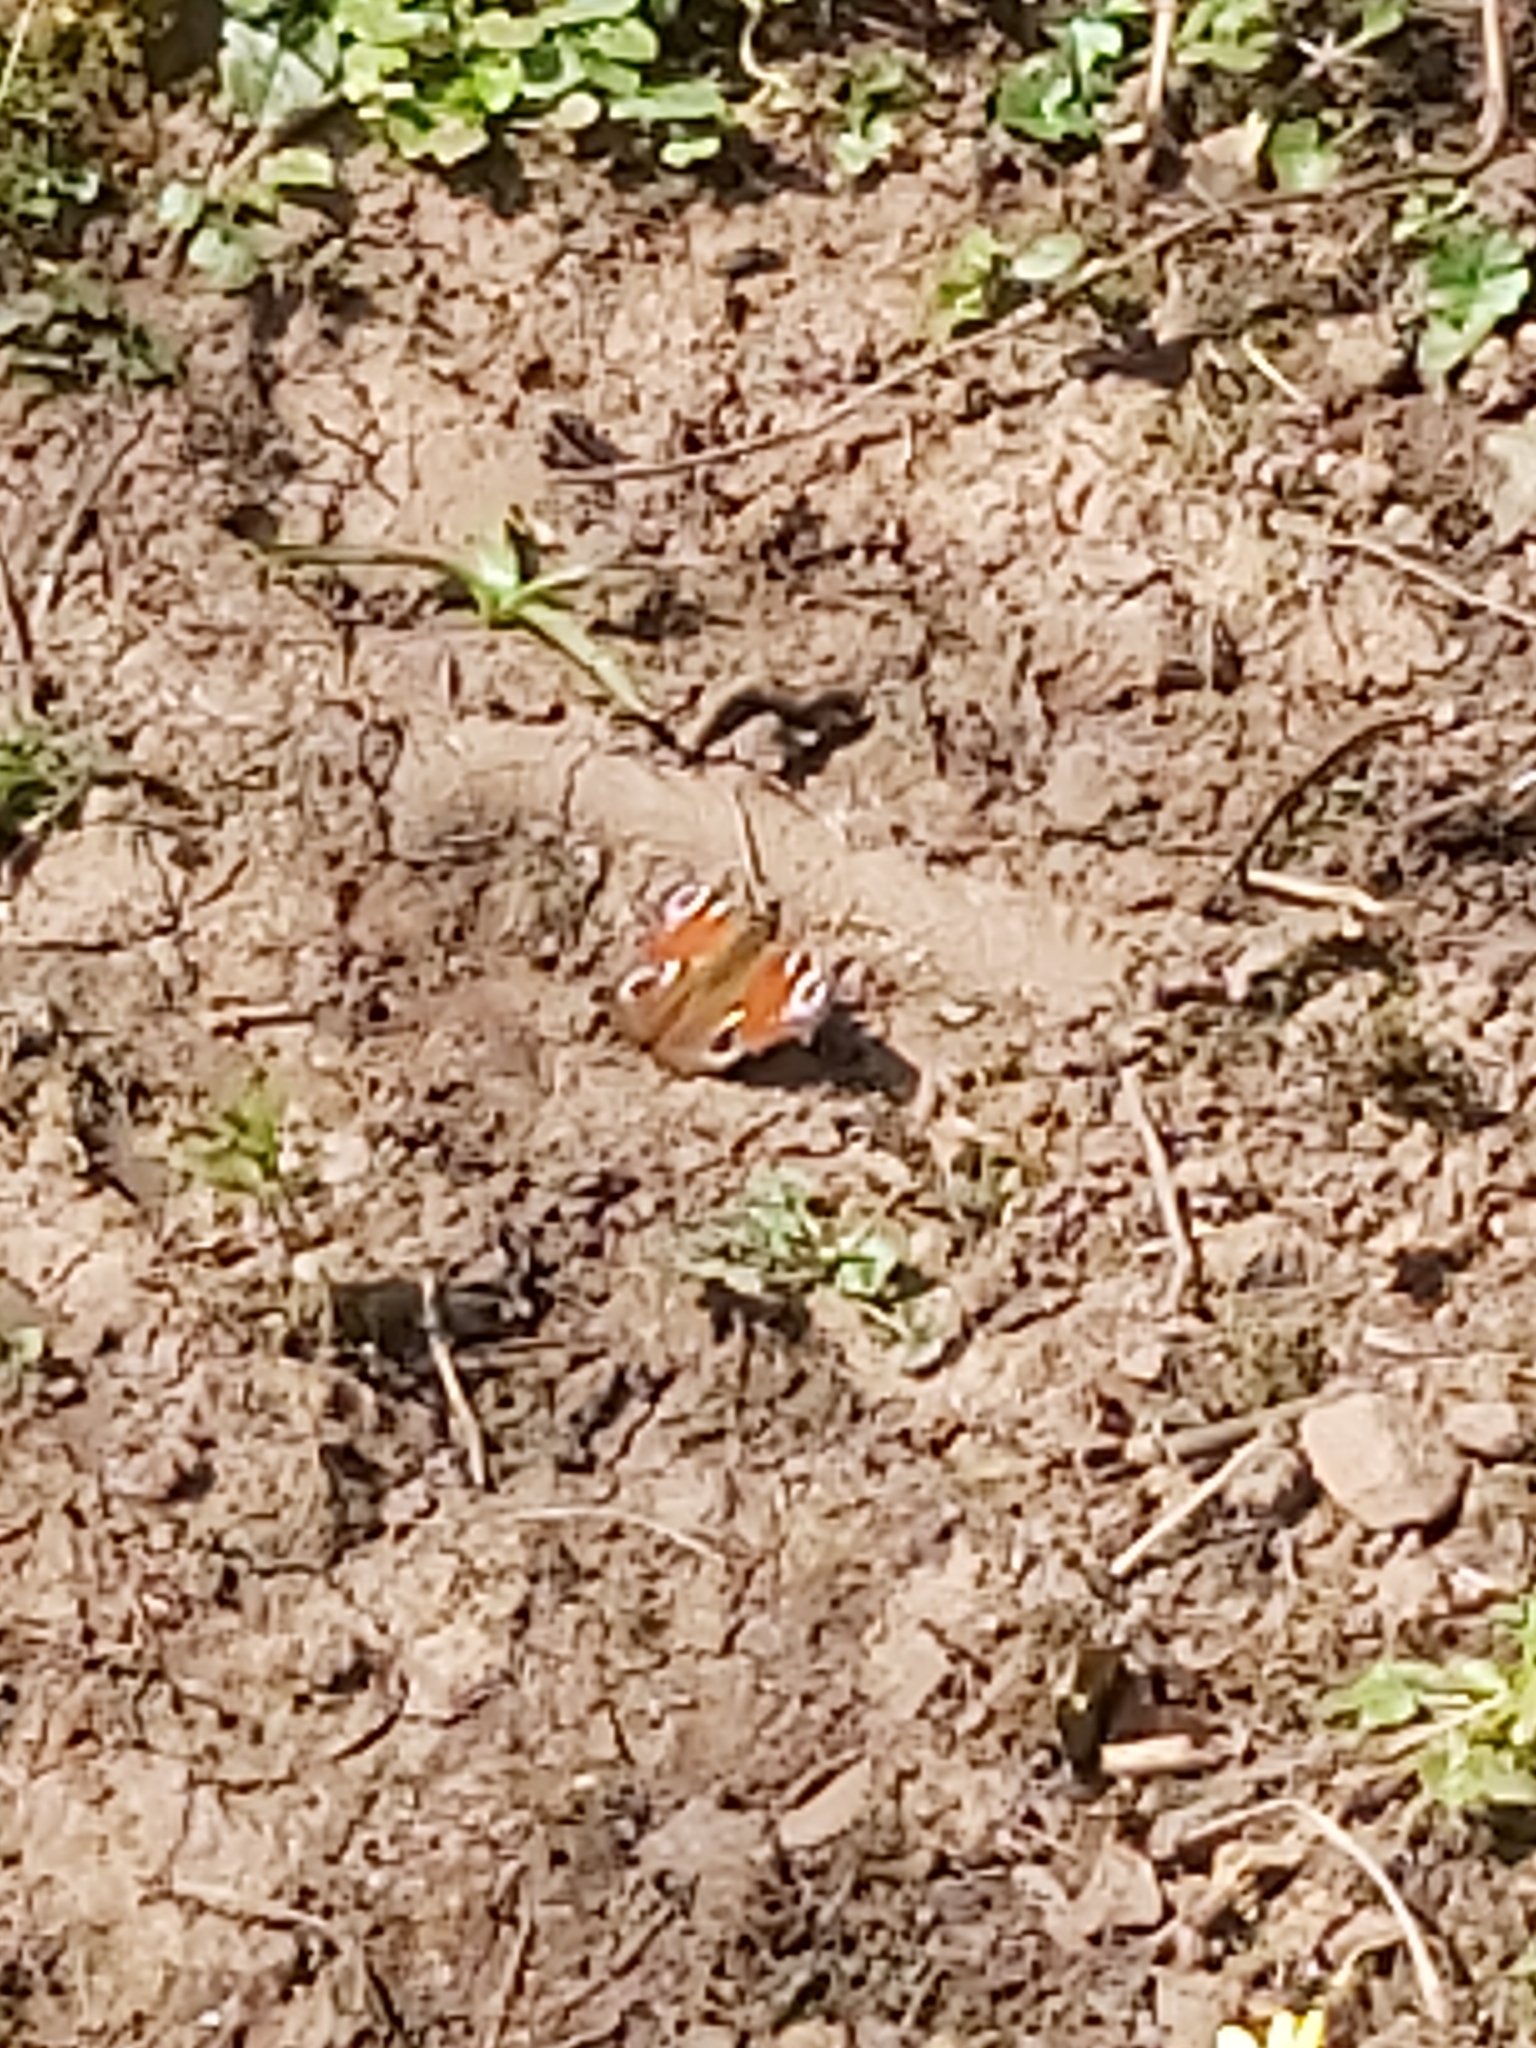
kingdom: Animalia
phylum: Arthropoda
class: Insecta
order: Lepidoptera
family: Nymphalidae
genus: Aglais
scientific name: Aglais io
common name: Peacock
